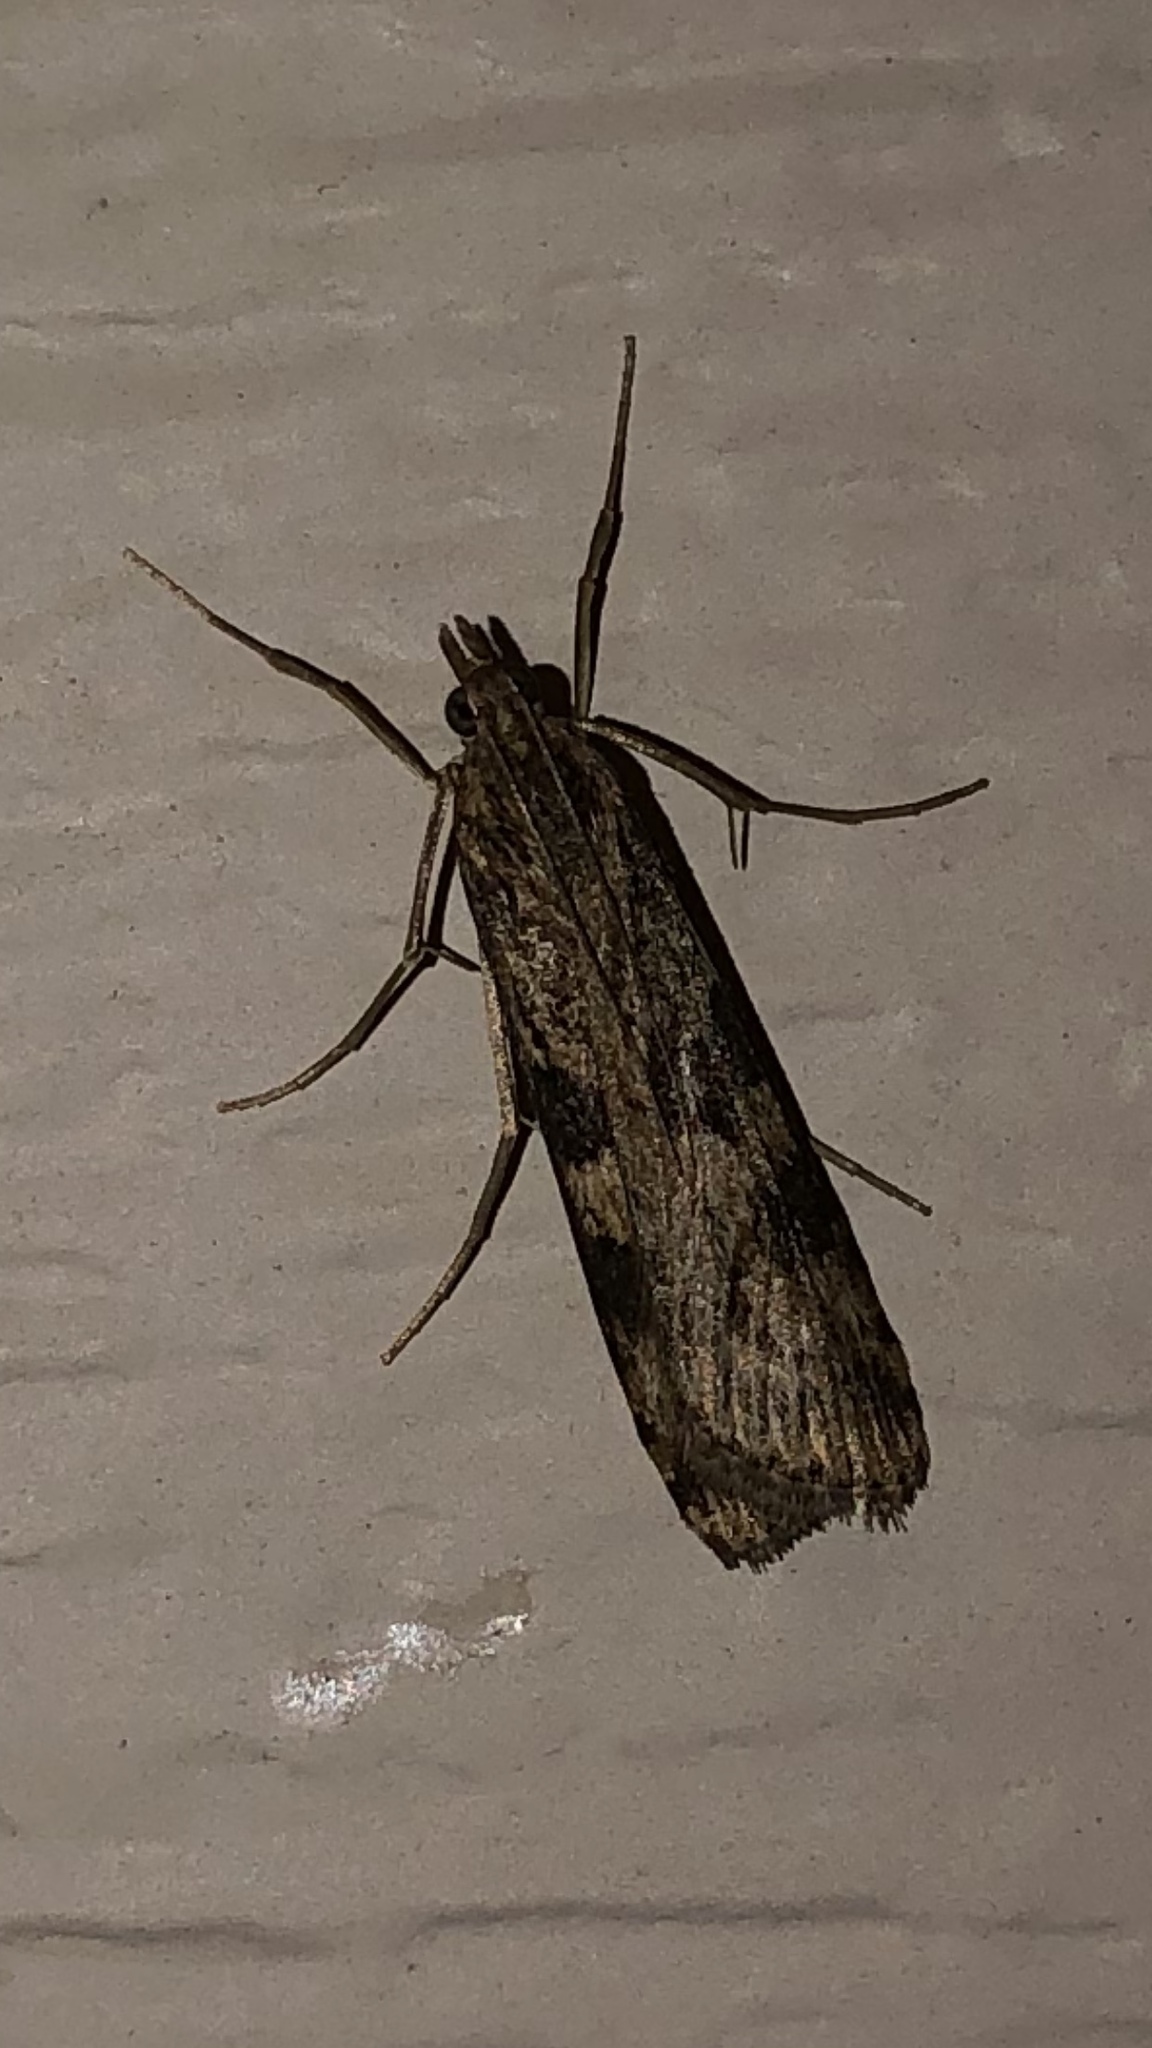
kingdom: Animalia
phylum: Arthropoda
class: Insecta
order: Lepidoptera
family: Crambidae
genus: Nomophila
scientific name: Nomophila nearctica
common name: American rush veneer
